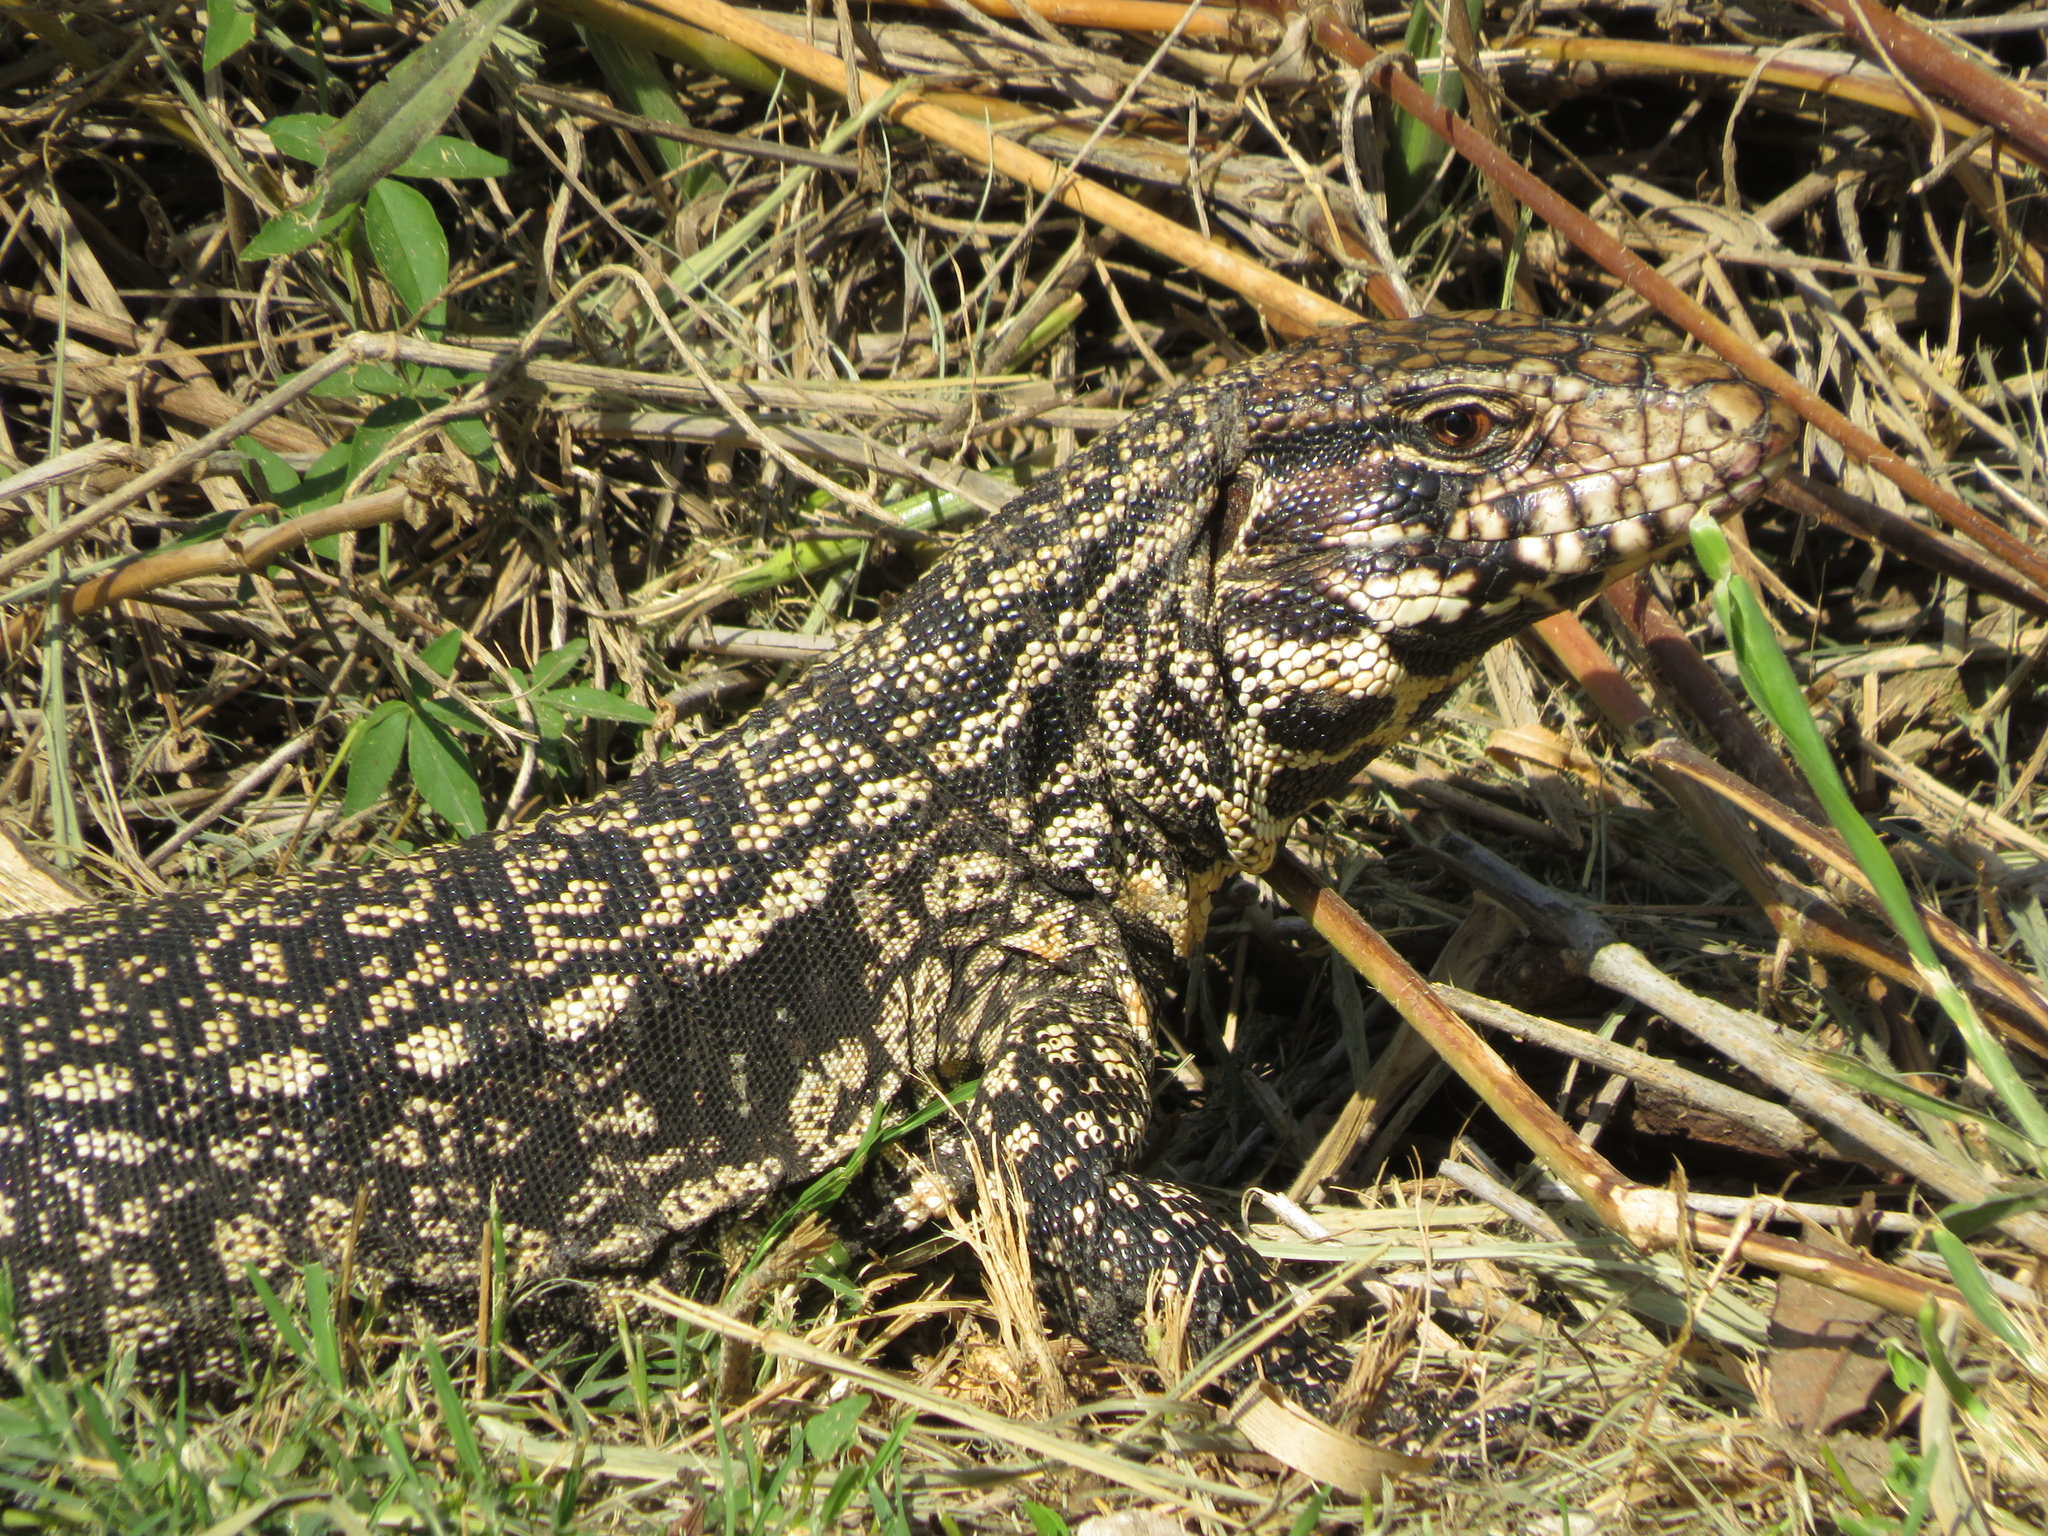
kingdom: Animalia
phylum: Chordata
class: Squamata
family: Teiidae
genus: Salvator
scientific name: Salvator merianae
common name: Argentine black and white tegu
